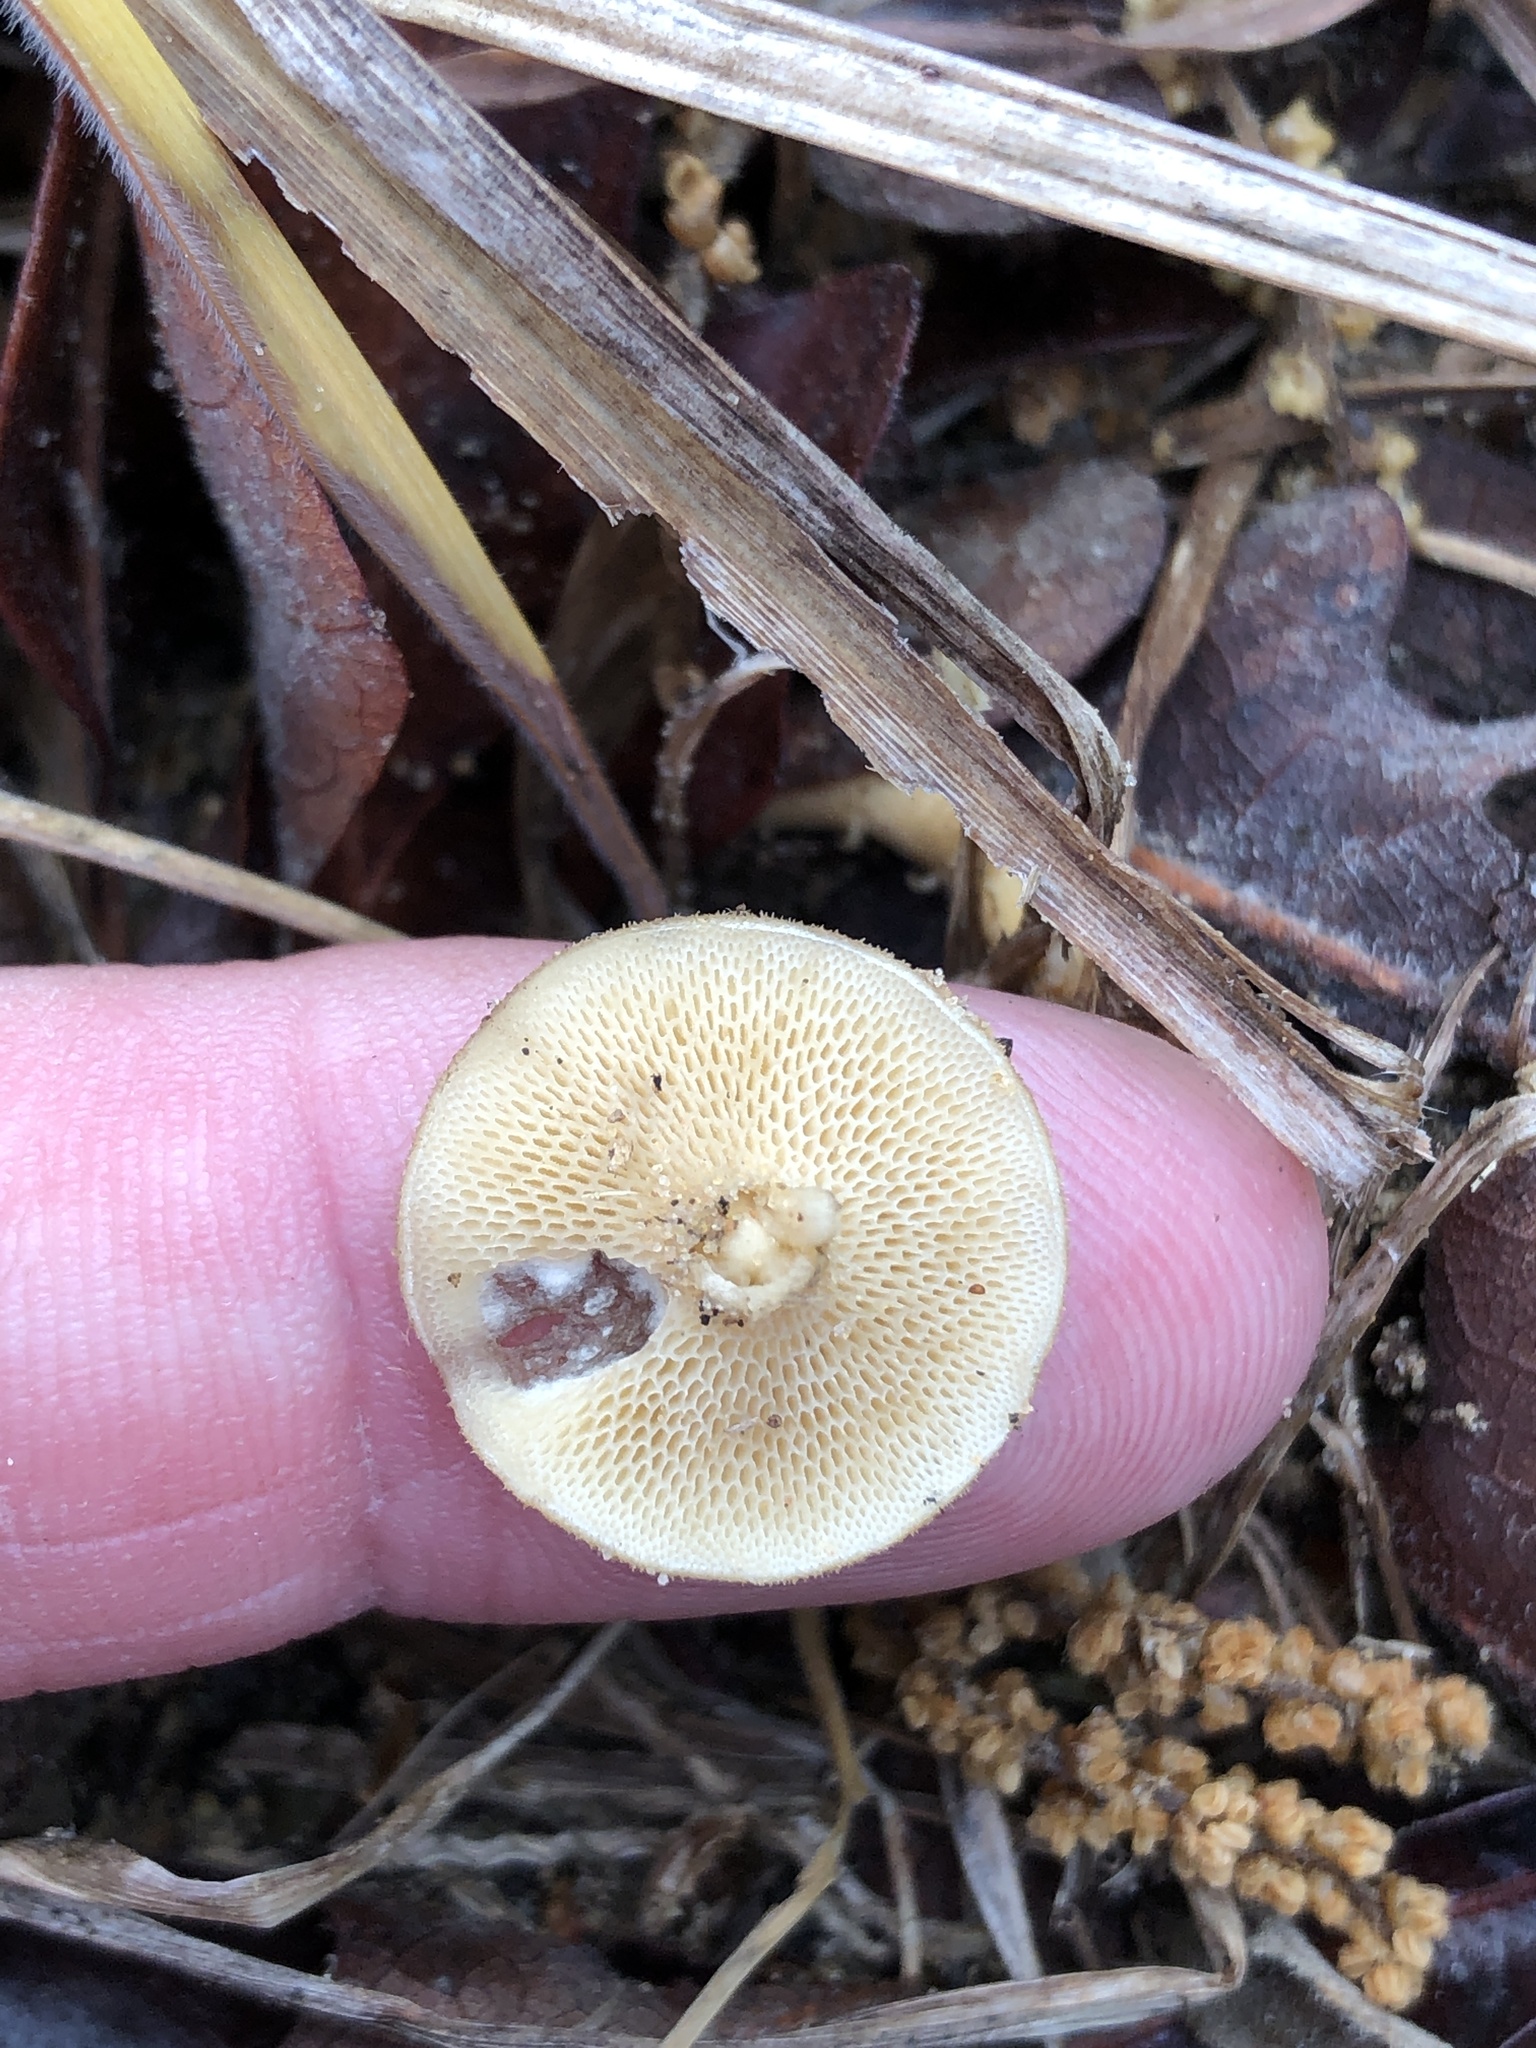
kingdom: Fungi
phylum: Basidiomycota
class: Agaricomycetes
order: Polyporales
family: Polyporaceae
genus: Lentinus
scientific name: Lentinus arcularius
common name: Spring polypore
